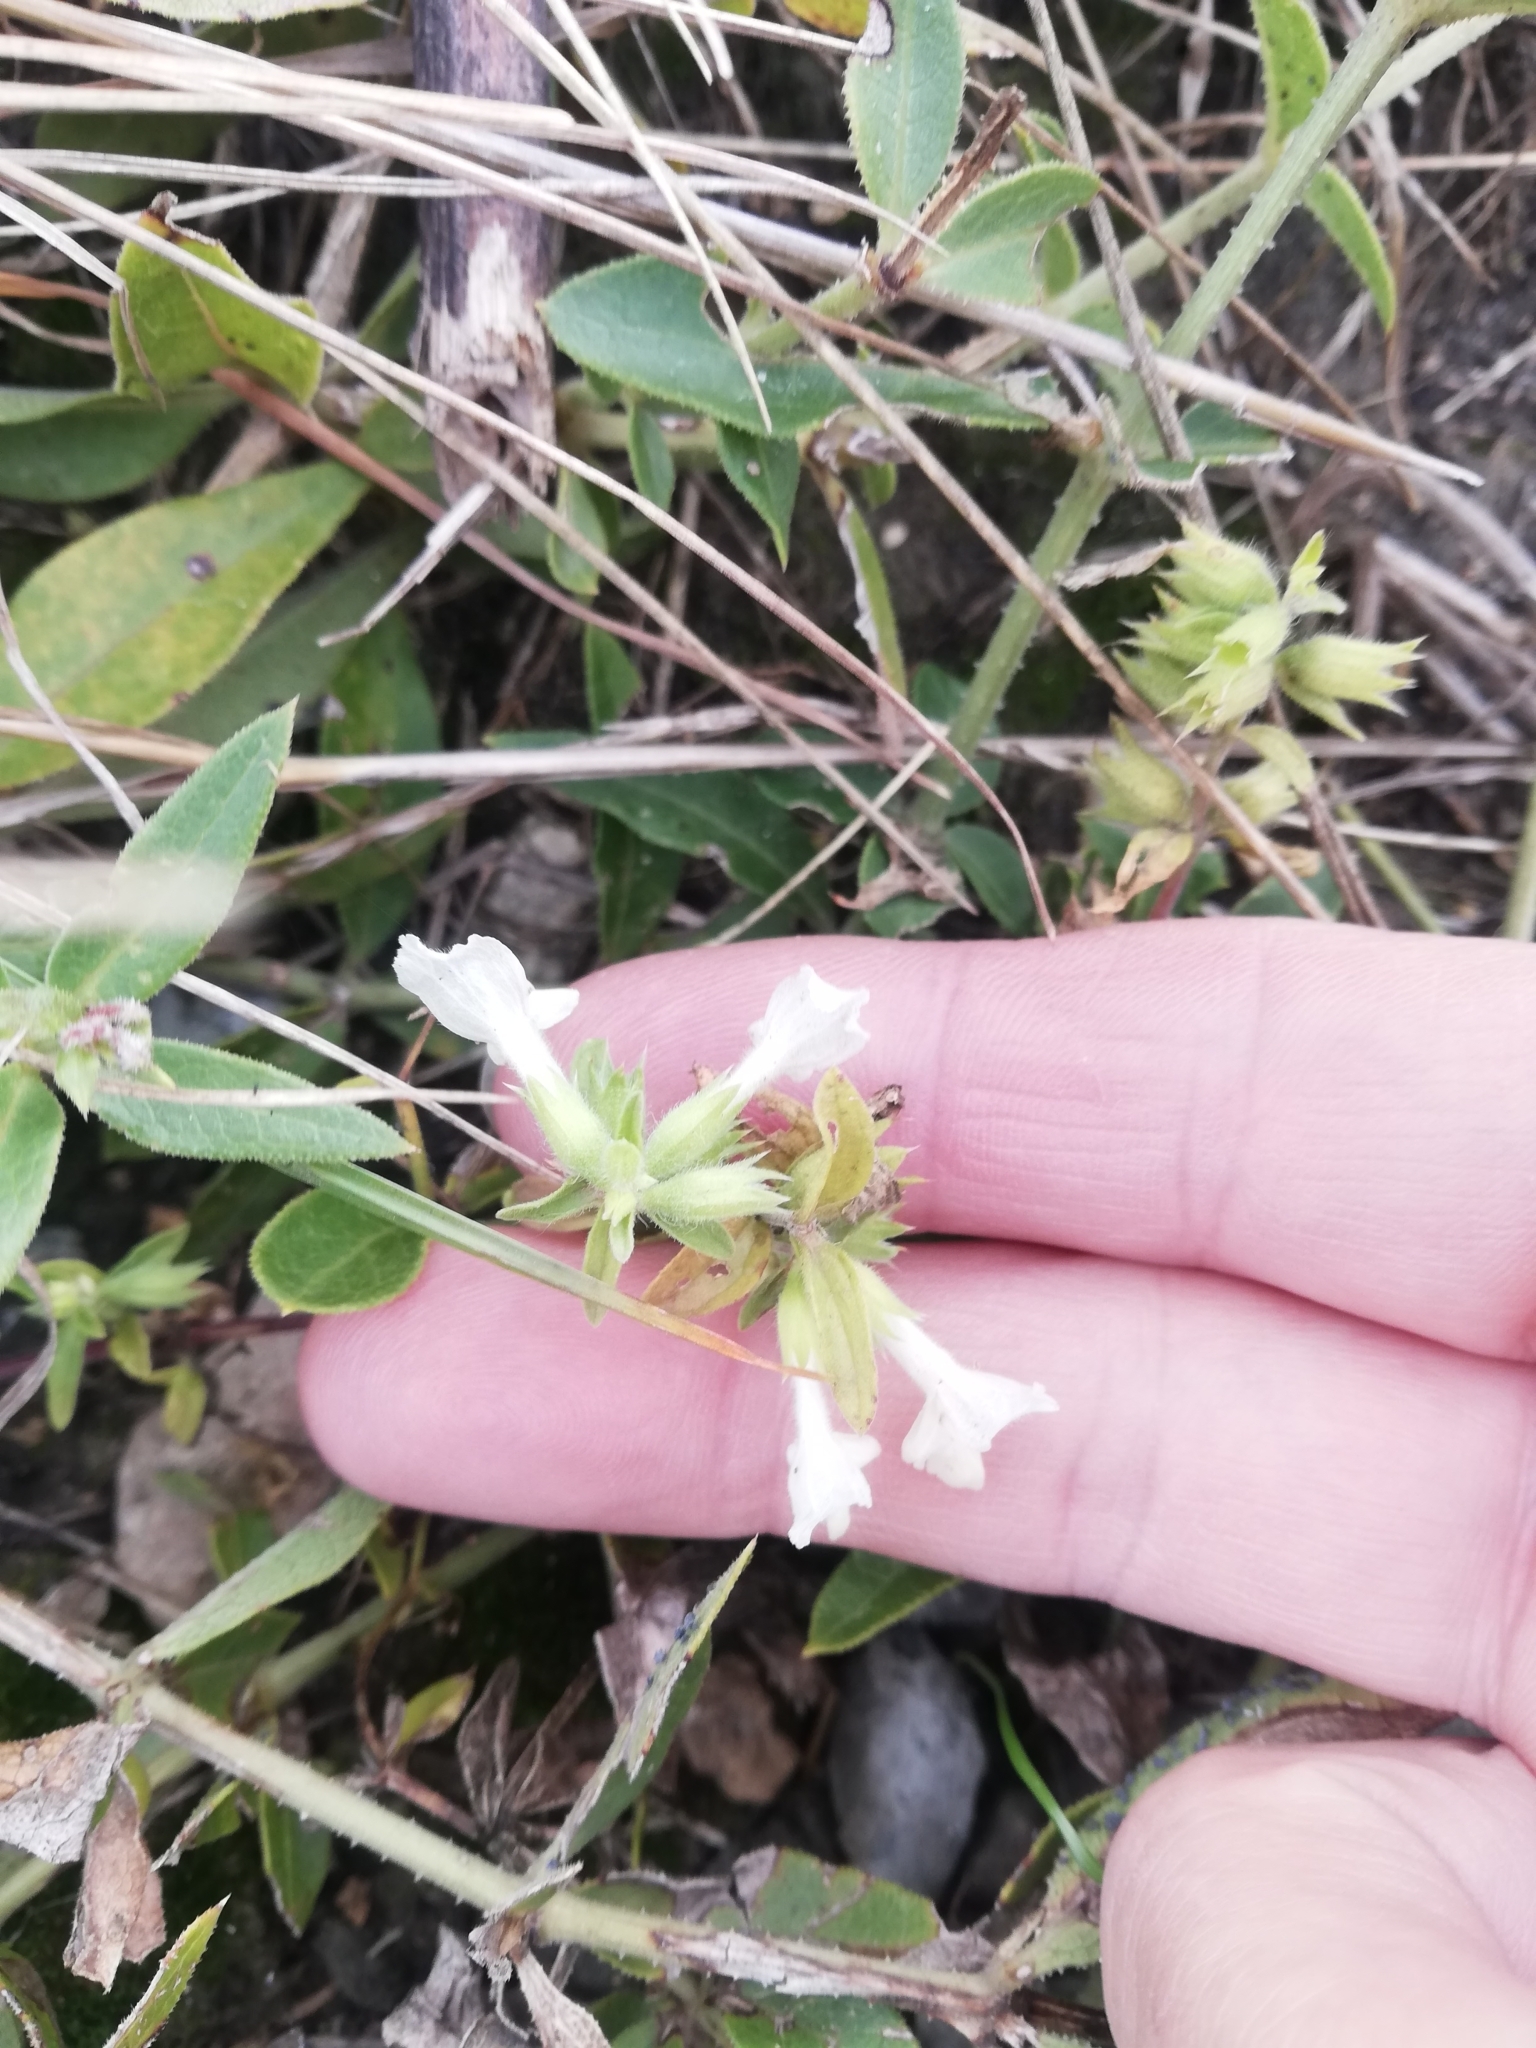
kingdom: Plantae
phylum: Tracheophyta
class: Magnoliopsida
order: Lamiales
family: Lamiaceae
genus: Stachys
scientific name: Stachys annua
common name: Annual yellow-woundwort
